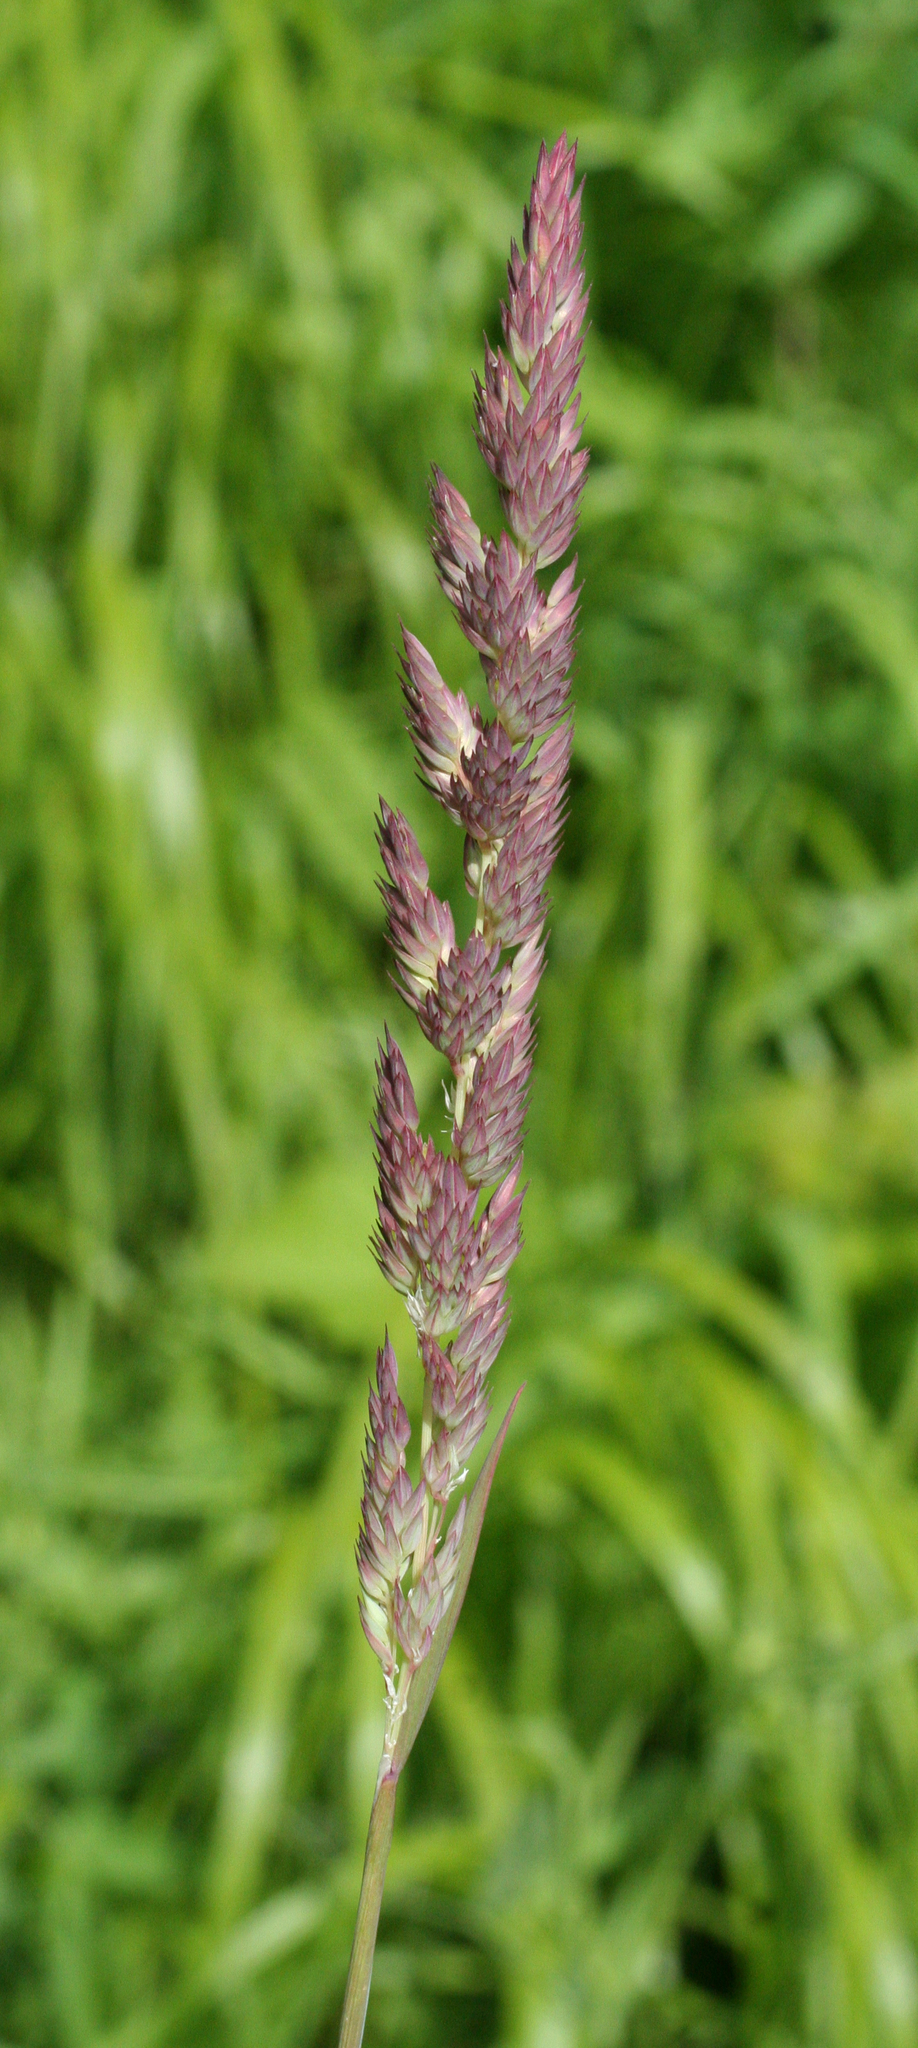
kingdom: Plantae
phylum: Tracheophyta
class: Liliopsida
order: Poales
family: Poaceae
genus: Phalaris
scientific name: Phalaris arundinacea
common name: Reed canary-grass
